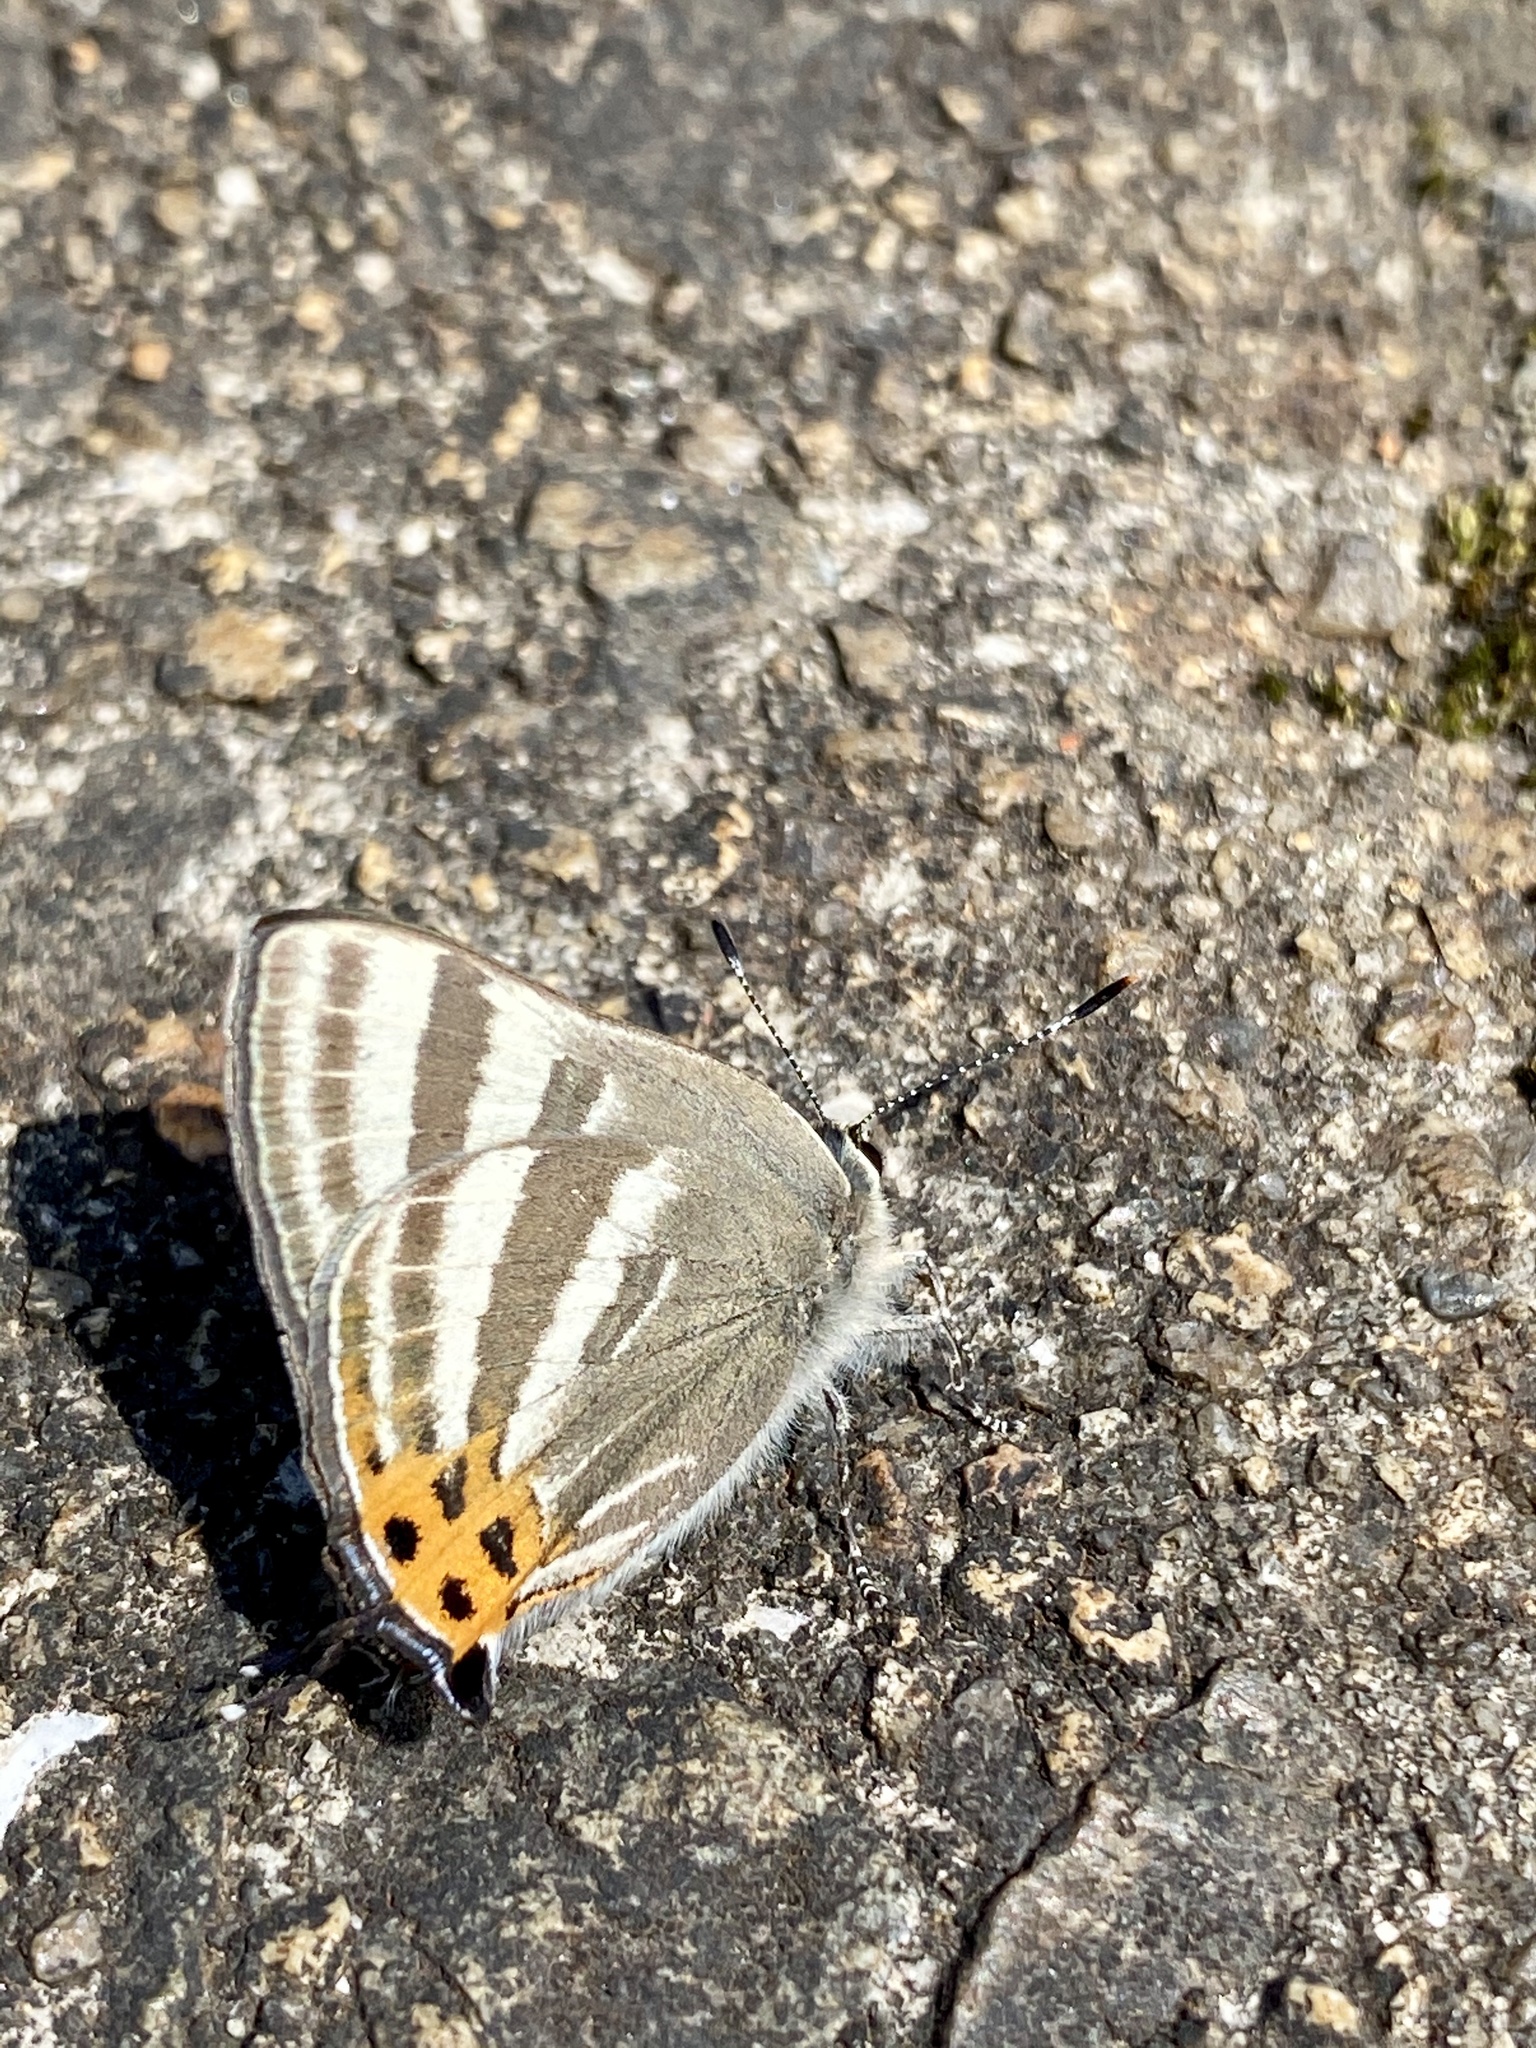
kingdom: Animalia
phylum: Arthropoda
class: Insecta
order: Lepidoptera
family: Lycaenidae
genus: Rapala
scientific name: Rapala arata
